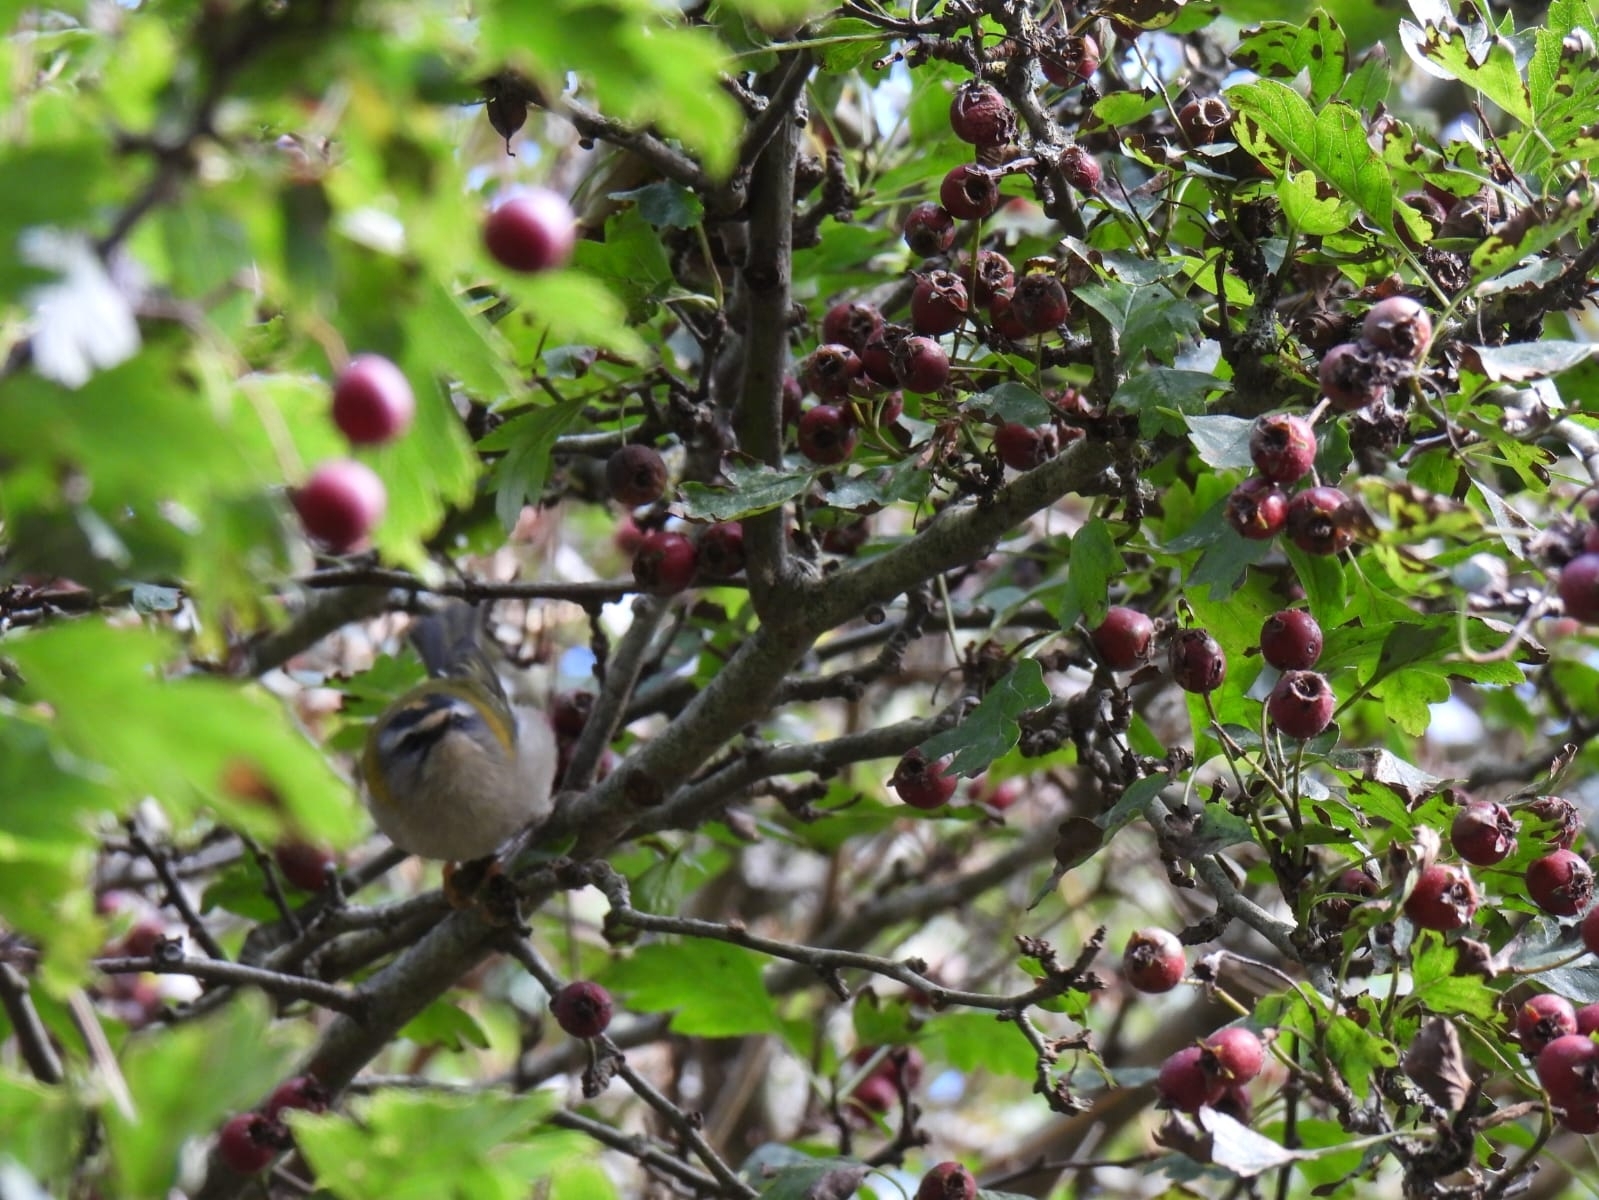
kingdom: Animalia
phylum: Chordata
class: Aves
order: Passeriformes
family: Regulidae
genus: Regulus
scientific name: Regulus ignicapilla
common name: Firecrest
